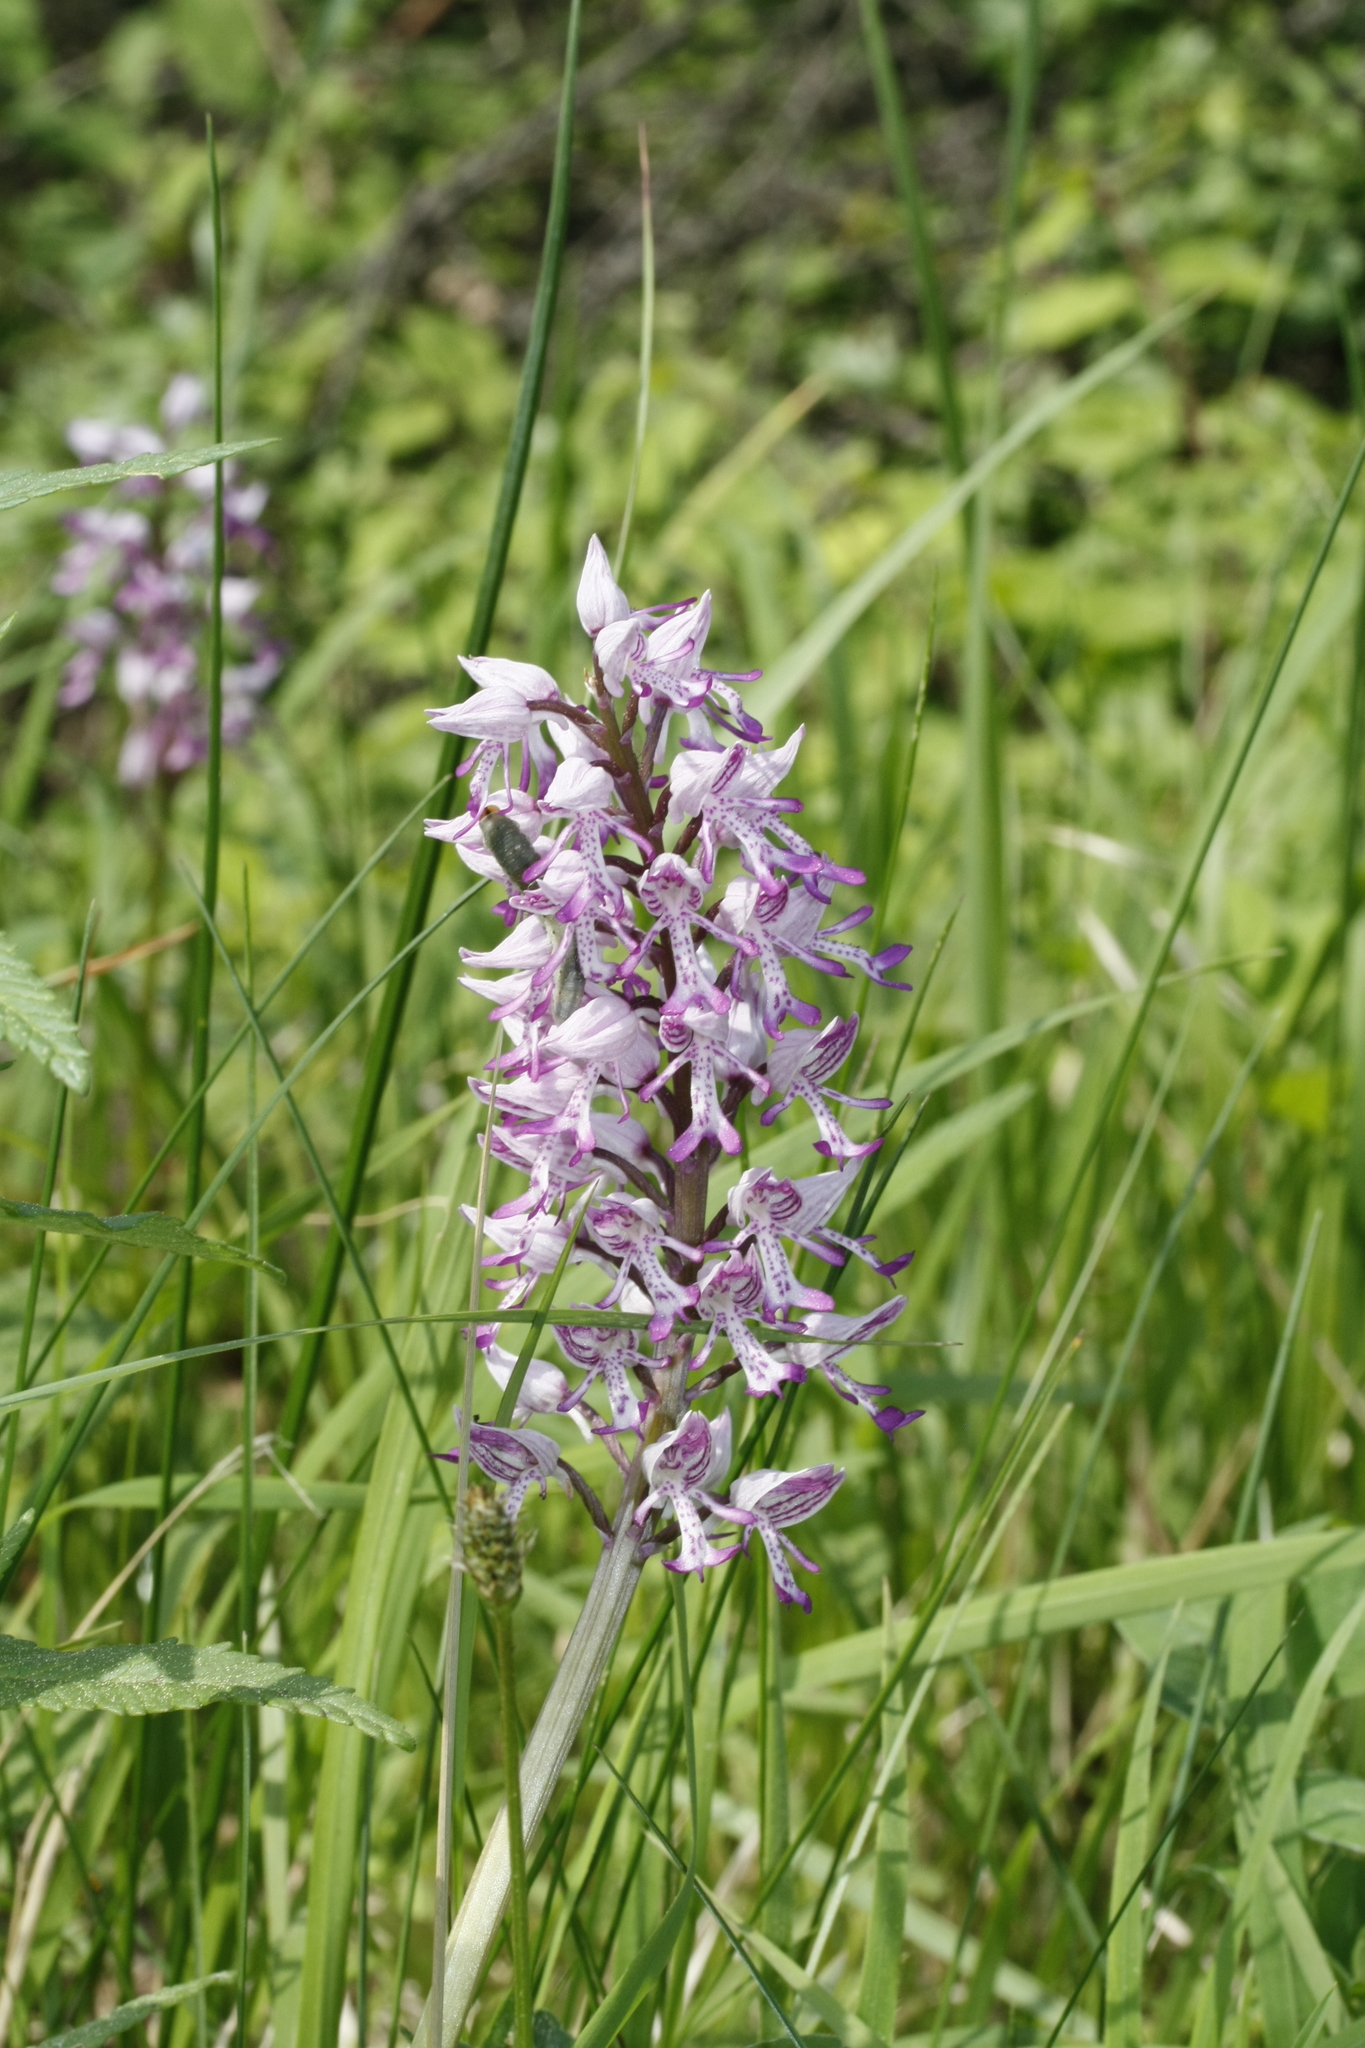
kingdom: Plantae
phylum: Tracheophyta
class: Liliopsida
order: Asparagales
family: Orchidaceae
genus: Orchis
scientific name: Orchis militaris
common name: Military orchid
